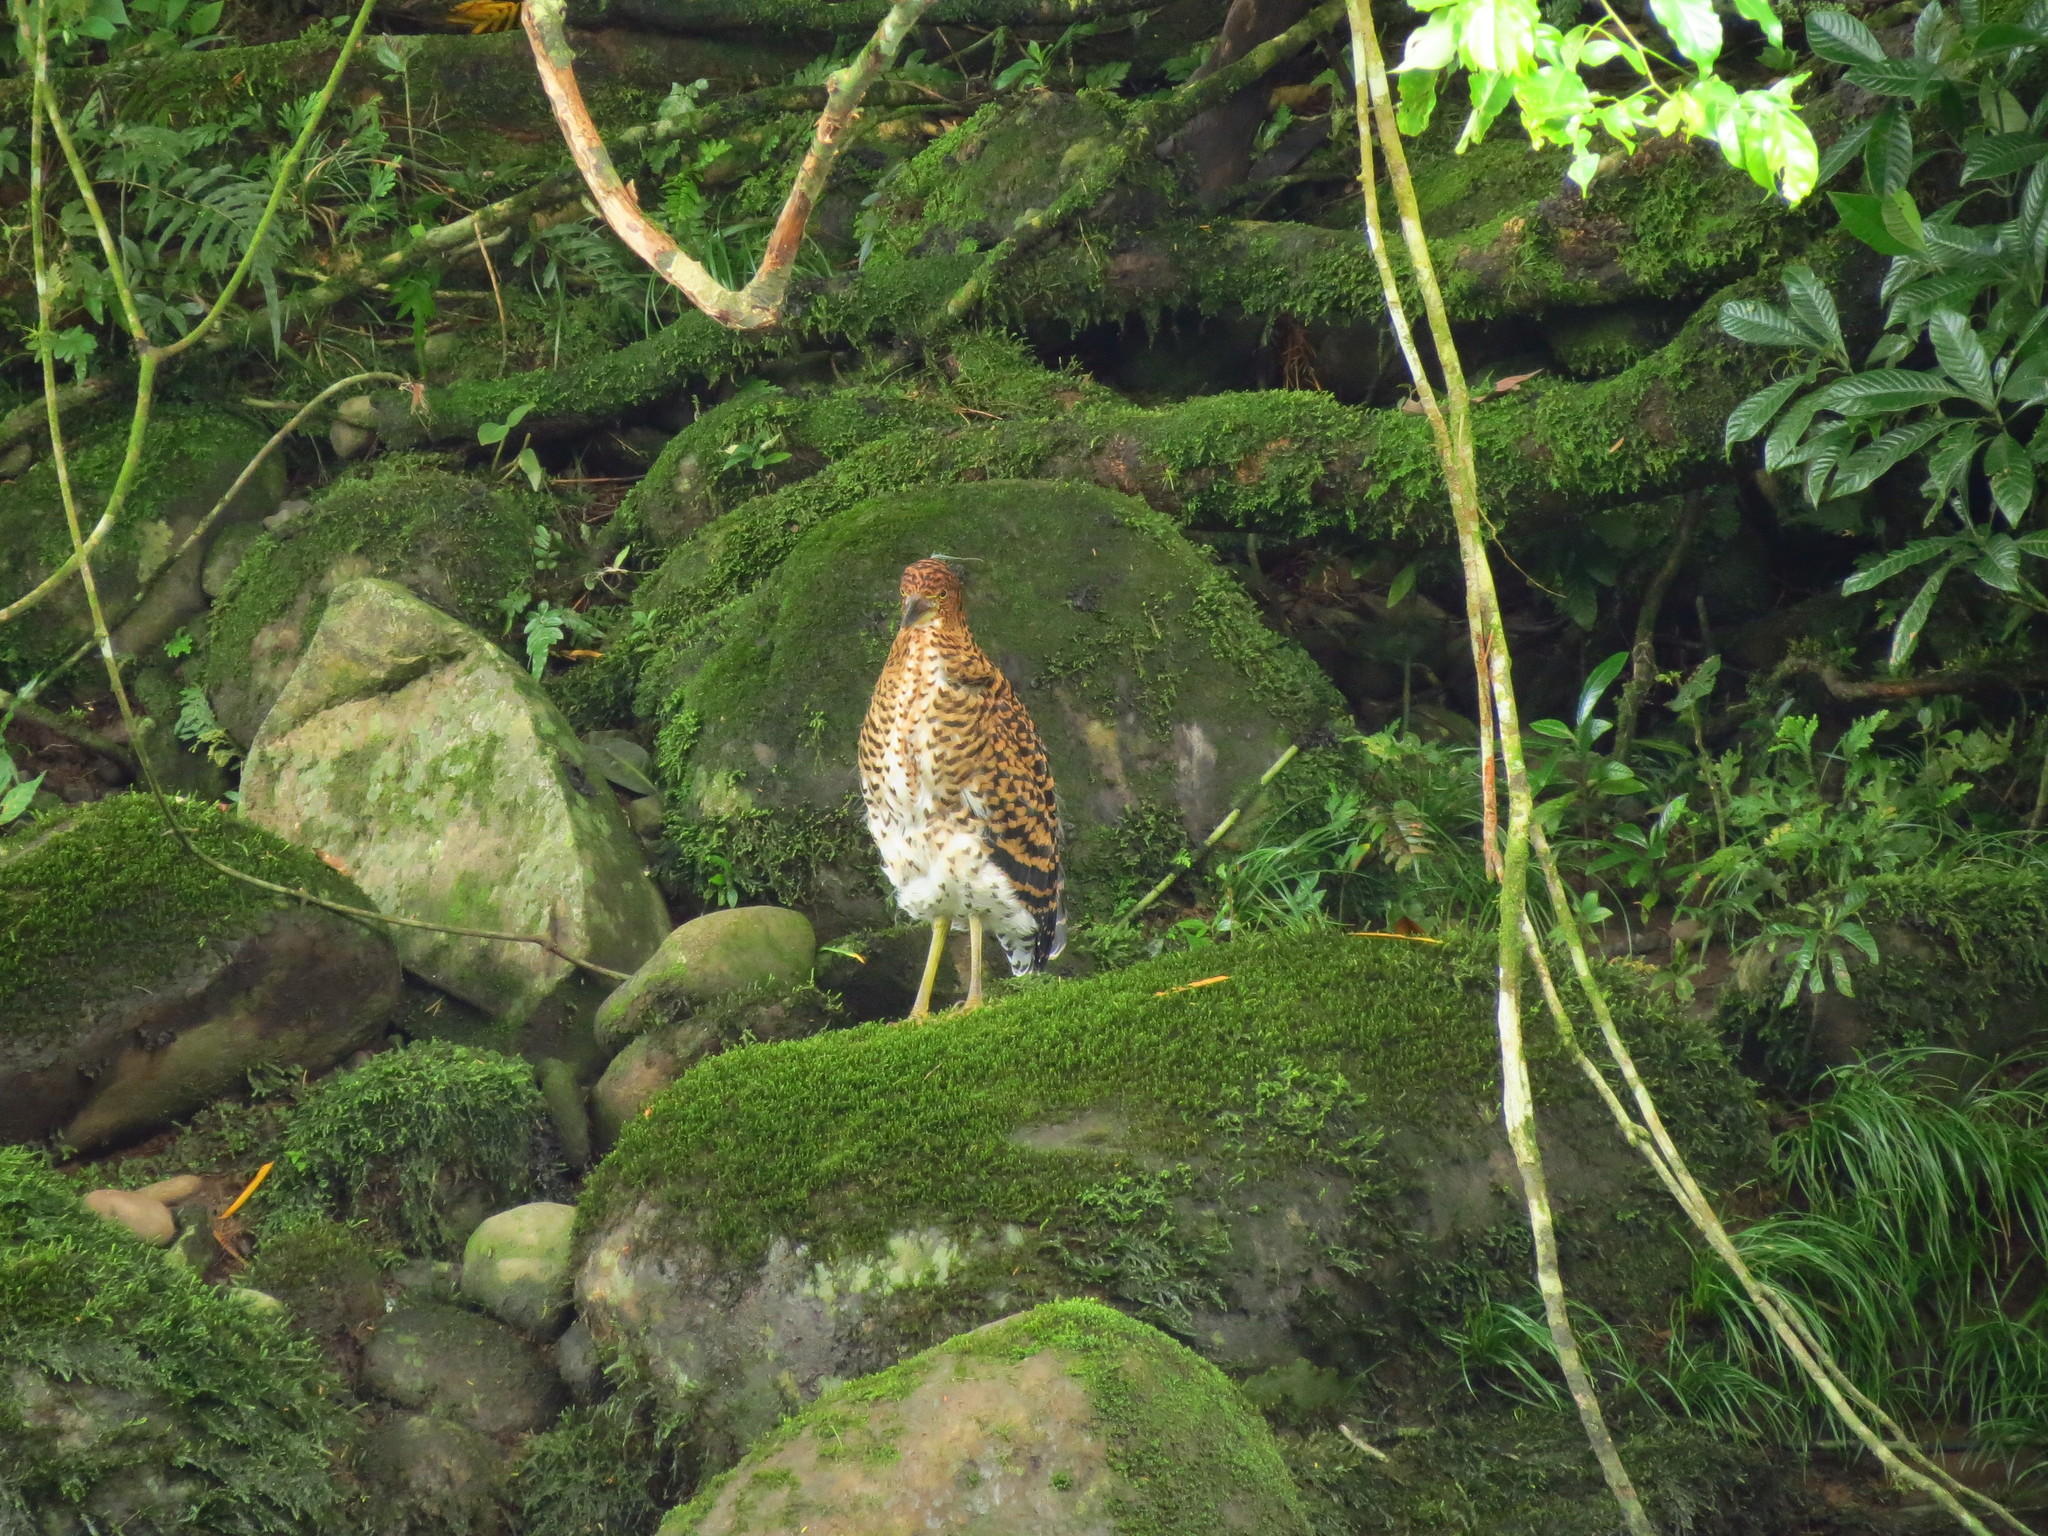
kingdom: Animalia
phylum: Chordata
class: Aves
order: Pelecaniformes
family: Ardeidae
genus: Tigrisoma
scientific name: Tigrisoma fasciatum
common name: Fasciated tiger-heron
